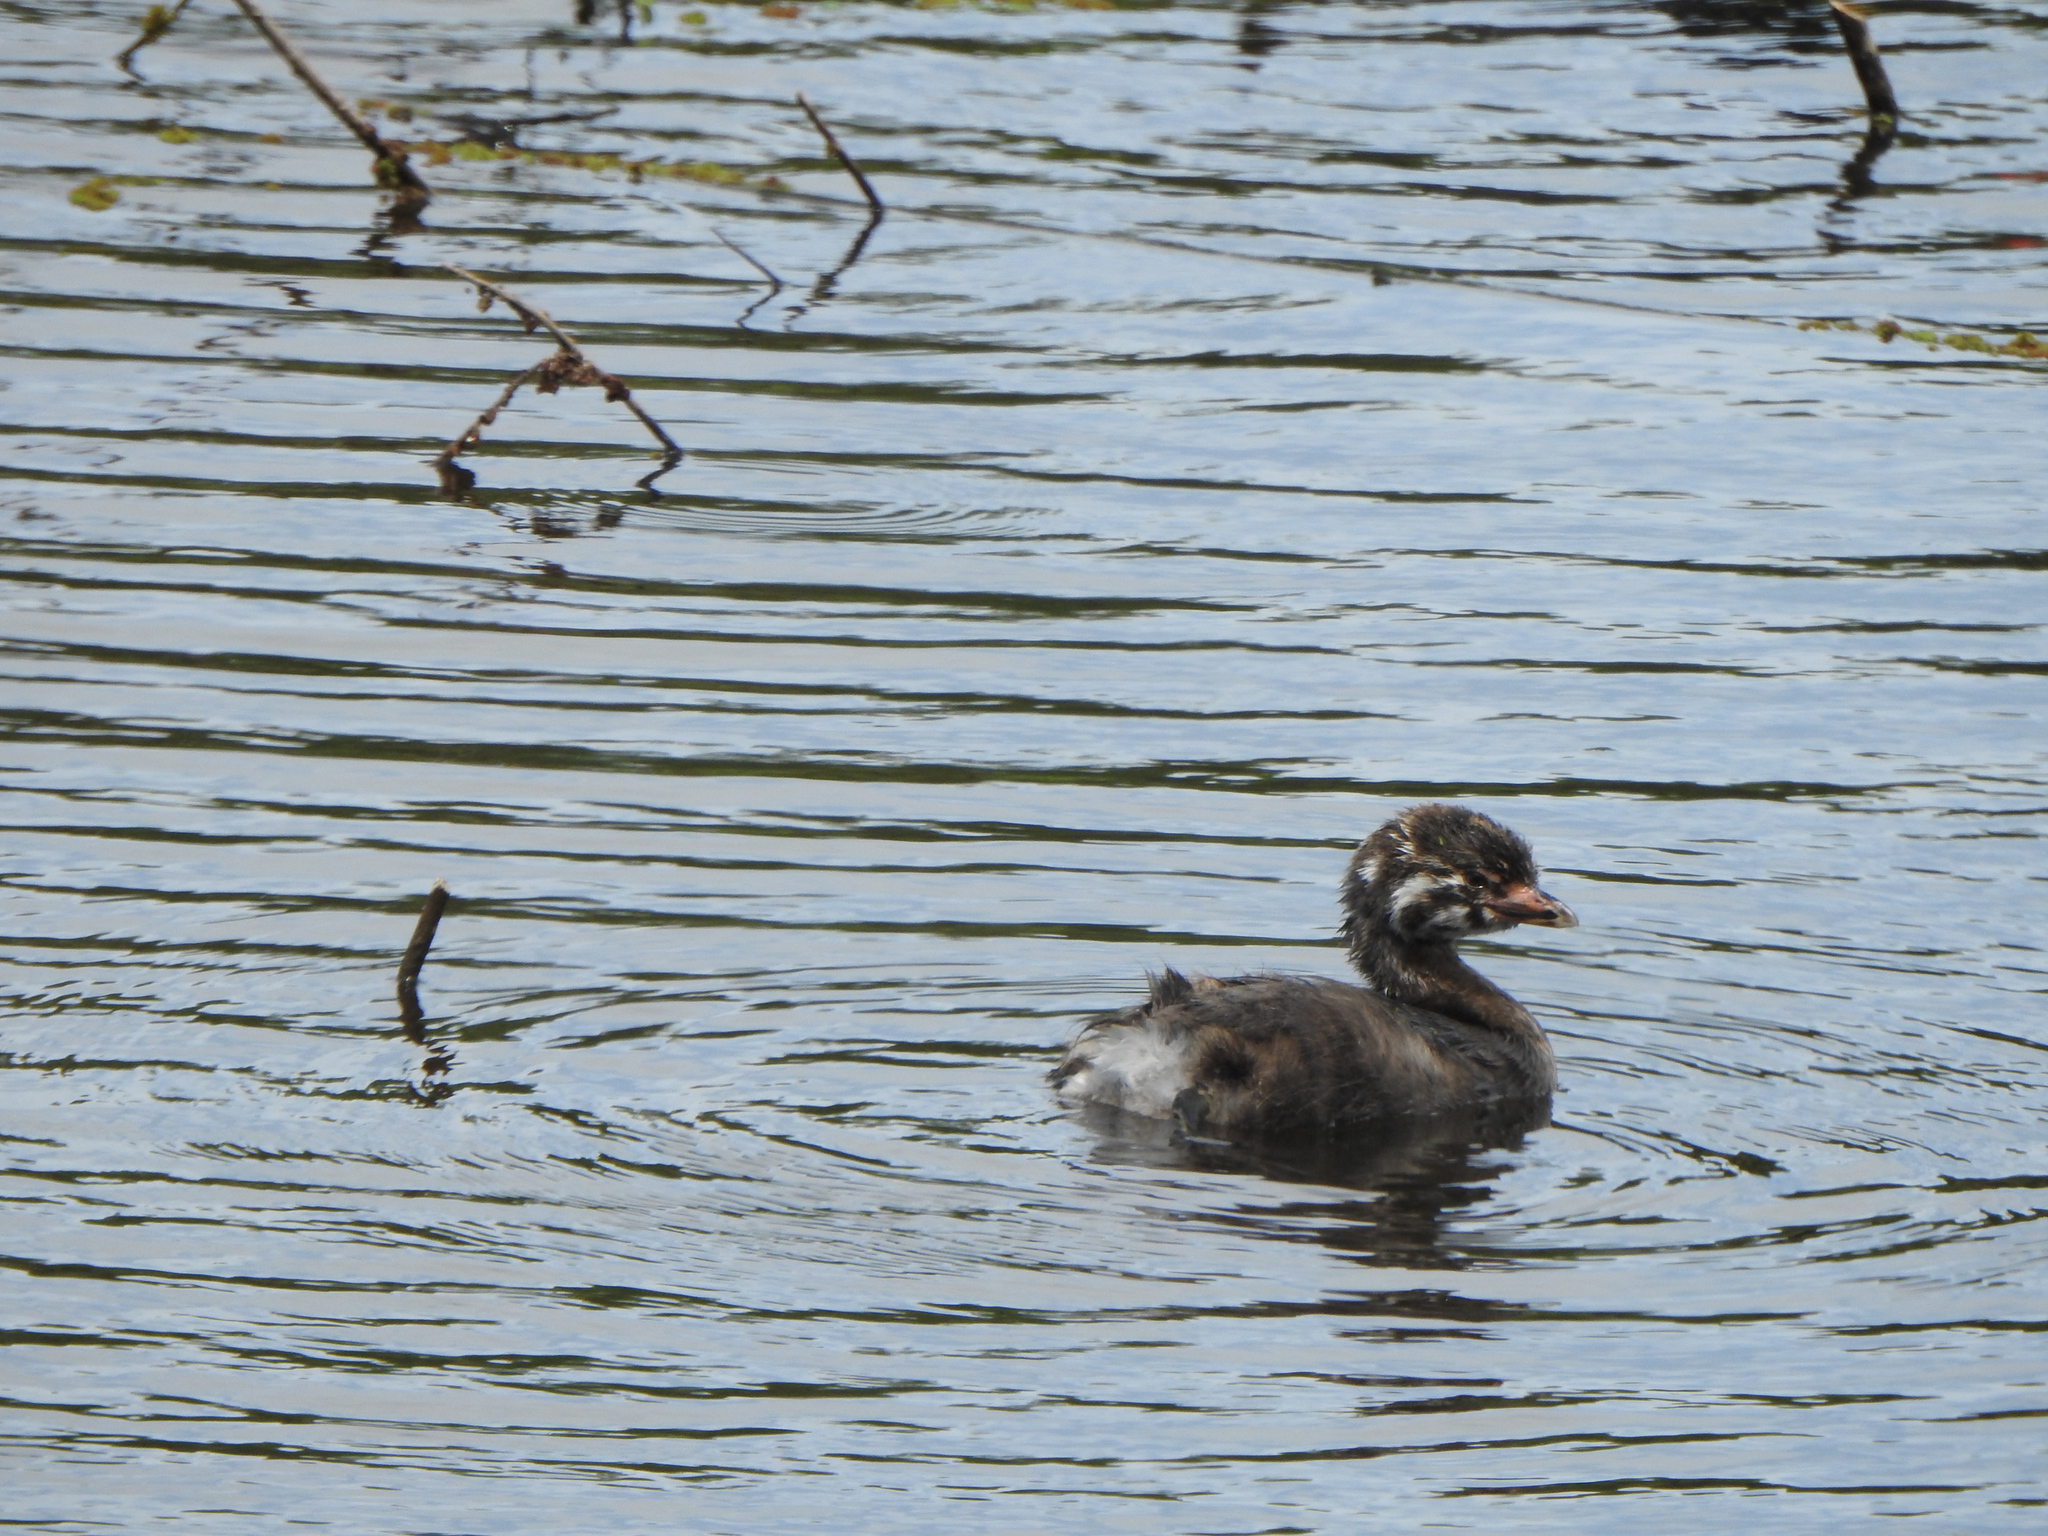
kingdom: Animalia
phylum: Chordata
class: Aves
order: Podicipediformes
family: Podicipedidae
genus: Podilymbus
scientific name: Podilymbus podiceps
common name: Pied-billed grebe
